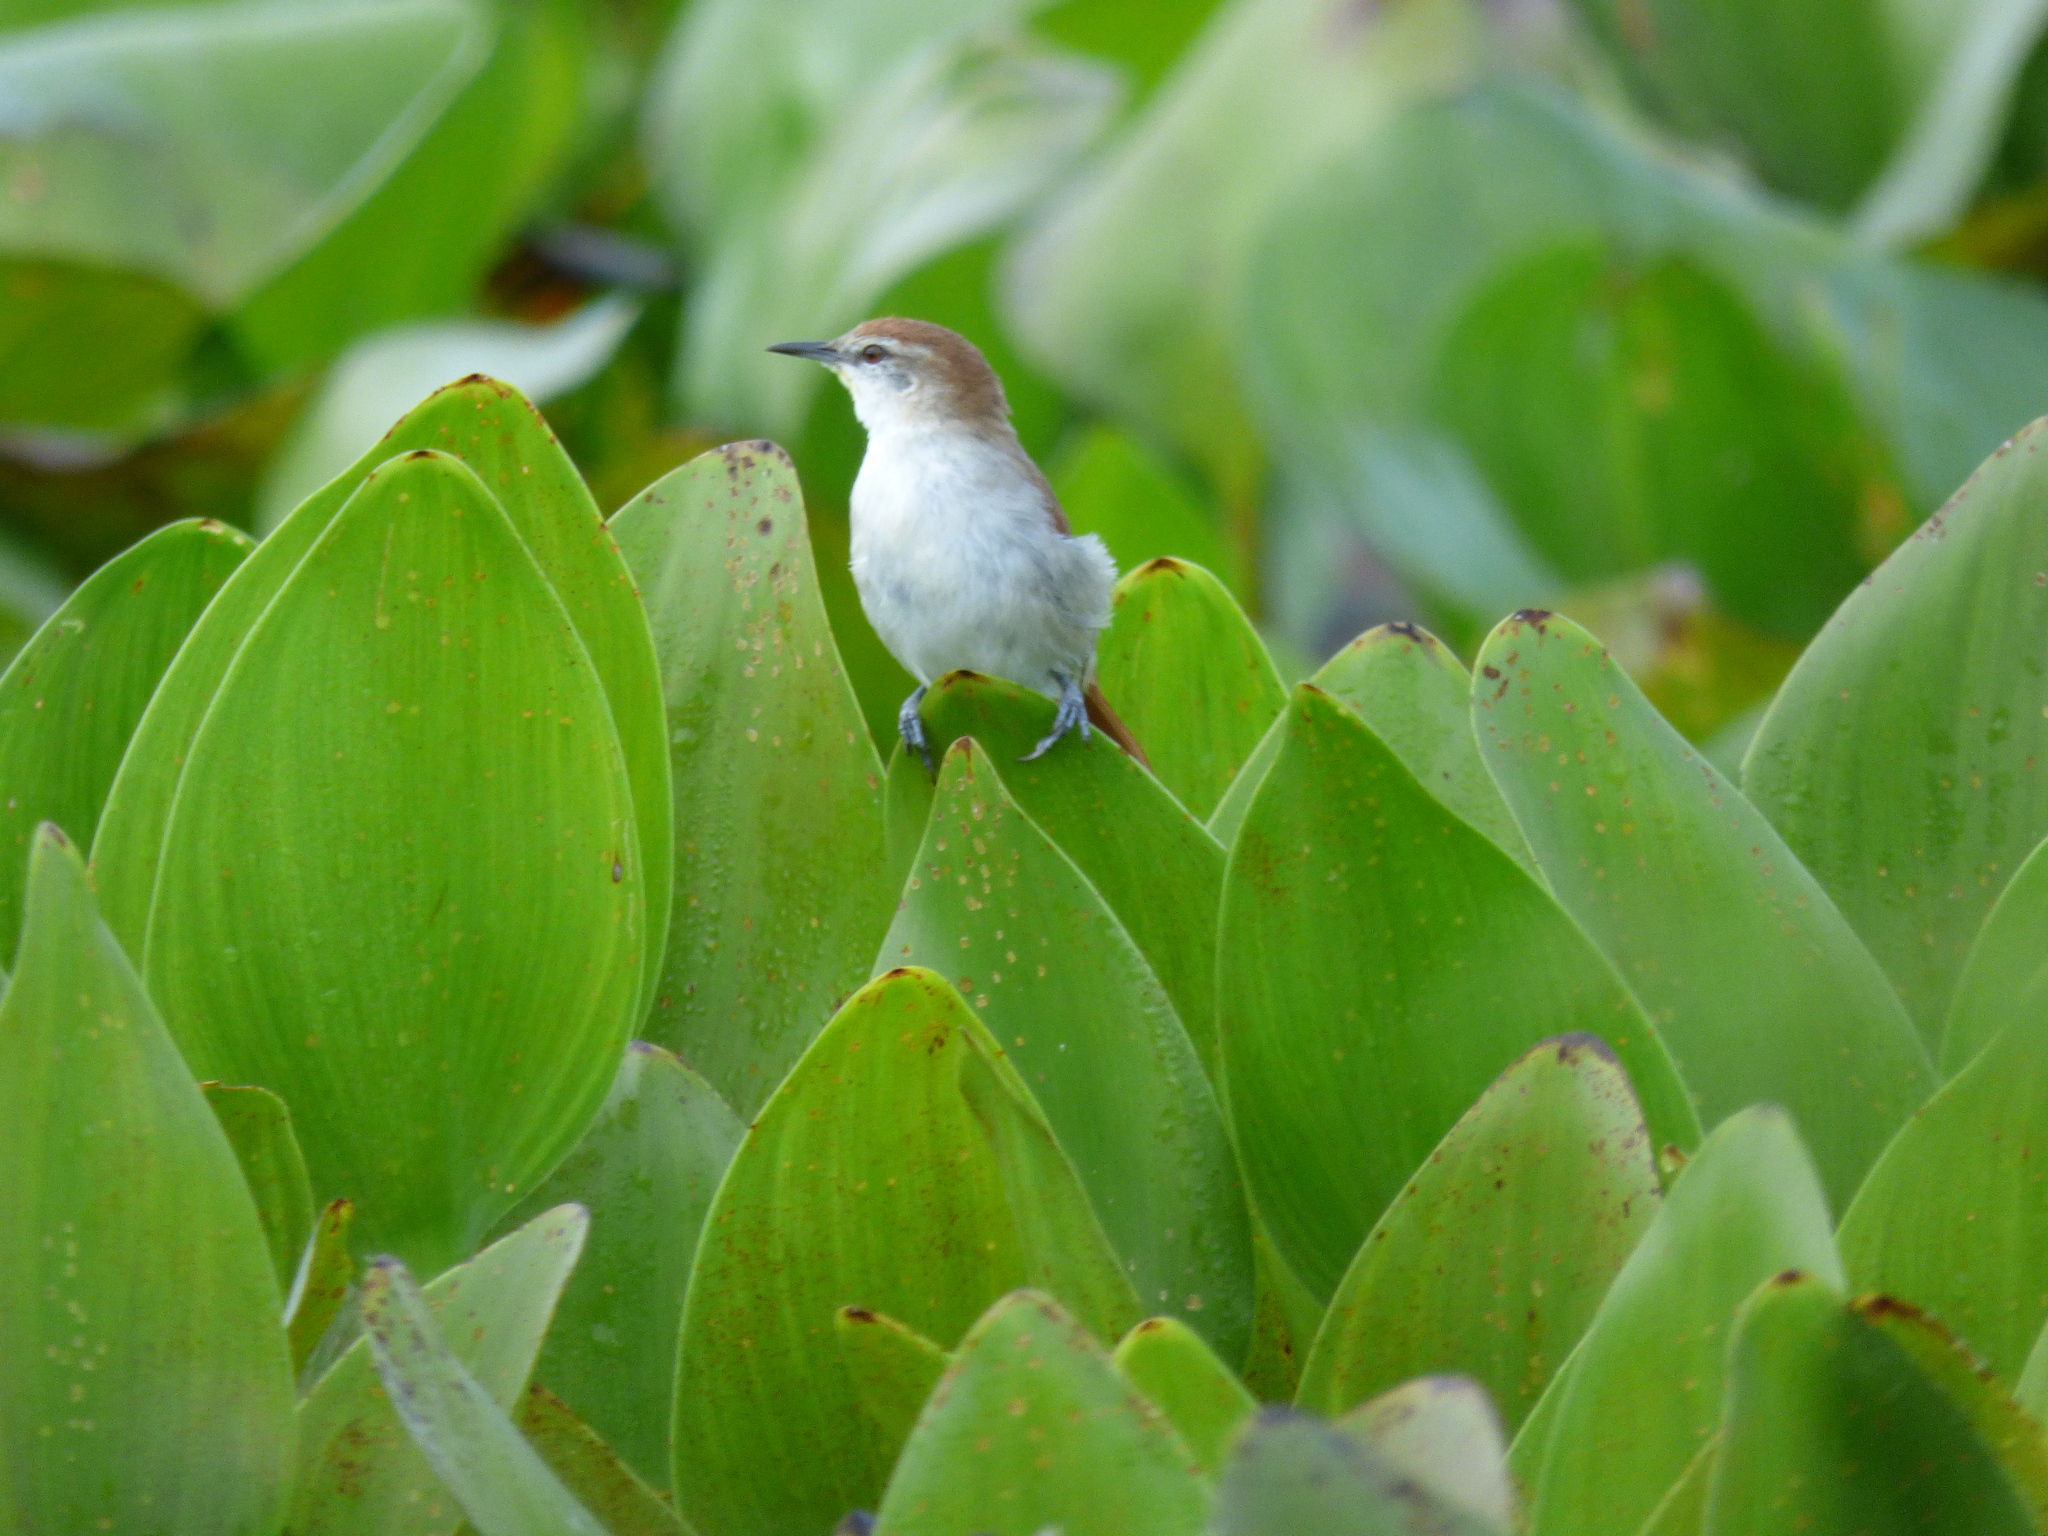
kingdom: Animalia
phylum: Chordata
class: Aves
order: Passeriformes
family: Furnariidae
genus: Certhiaxis
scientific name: Certhiaxis cinnamomeus
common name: Yellow-chinned spinetail
